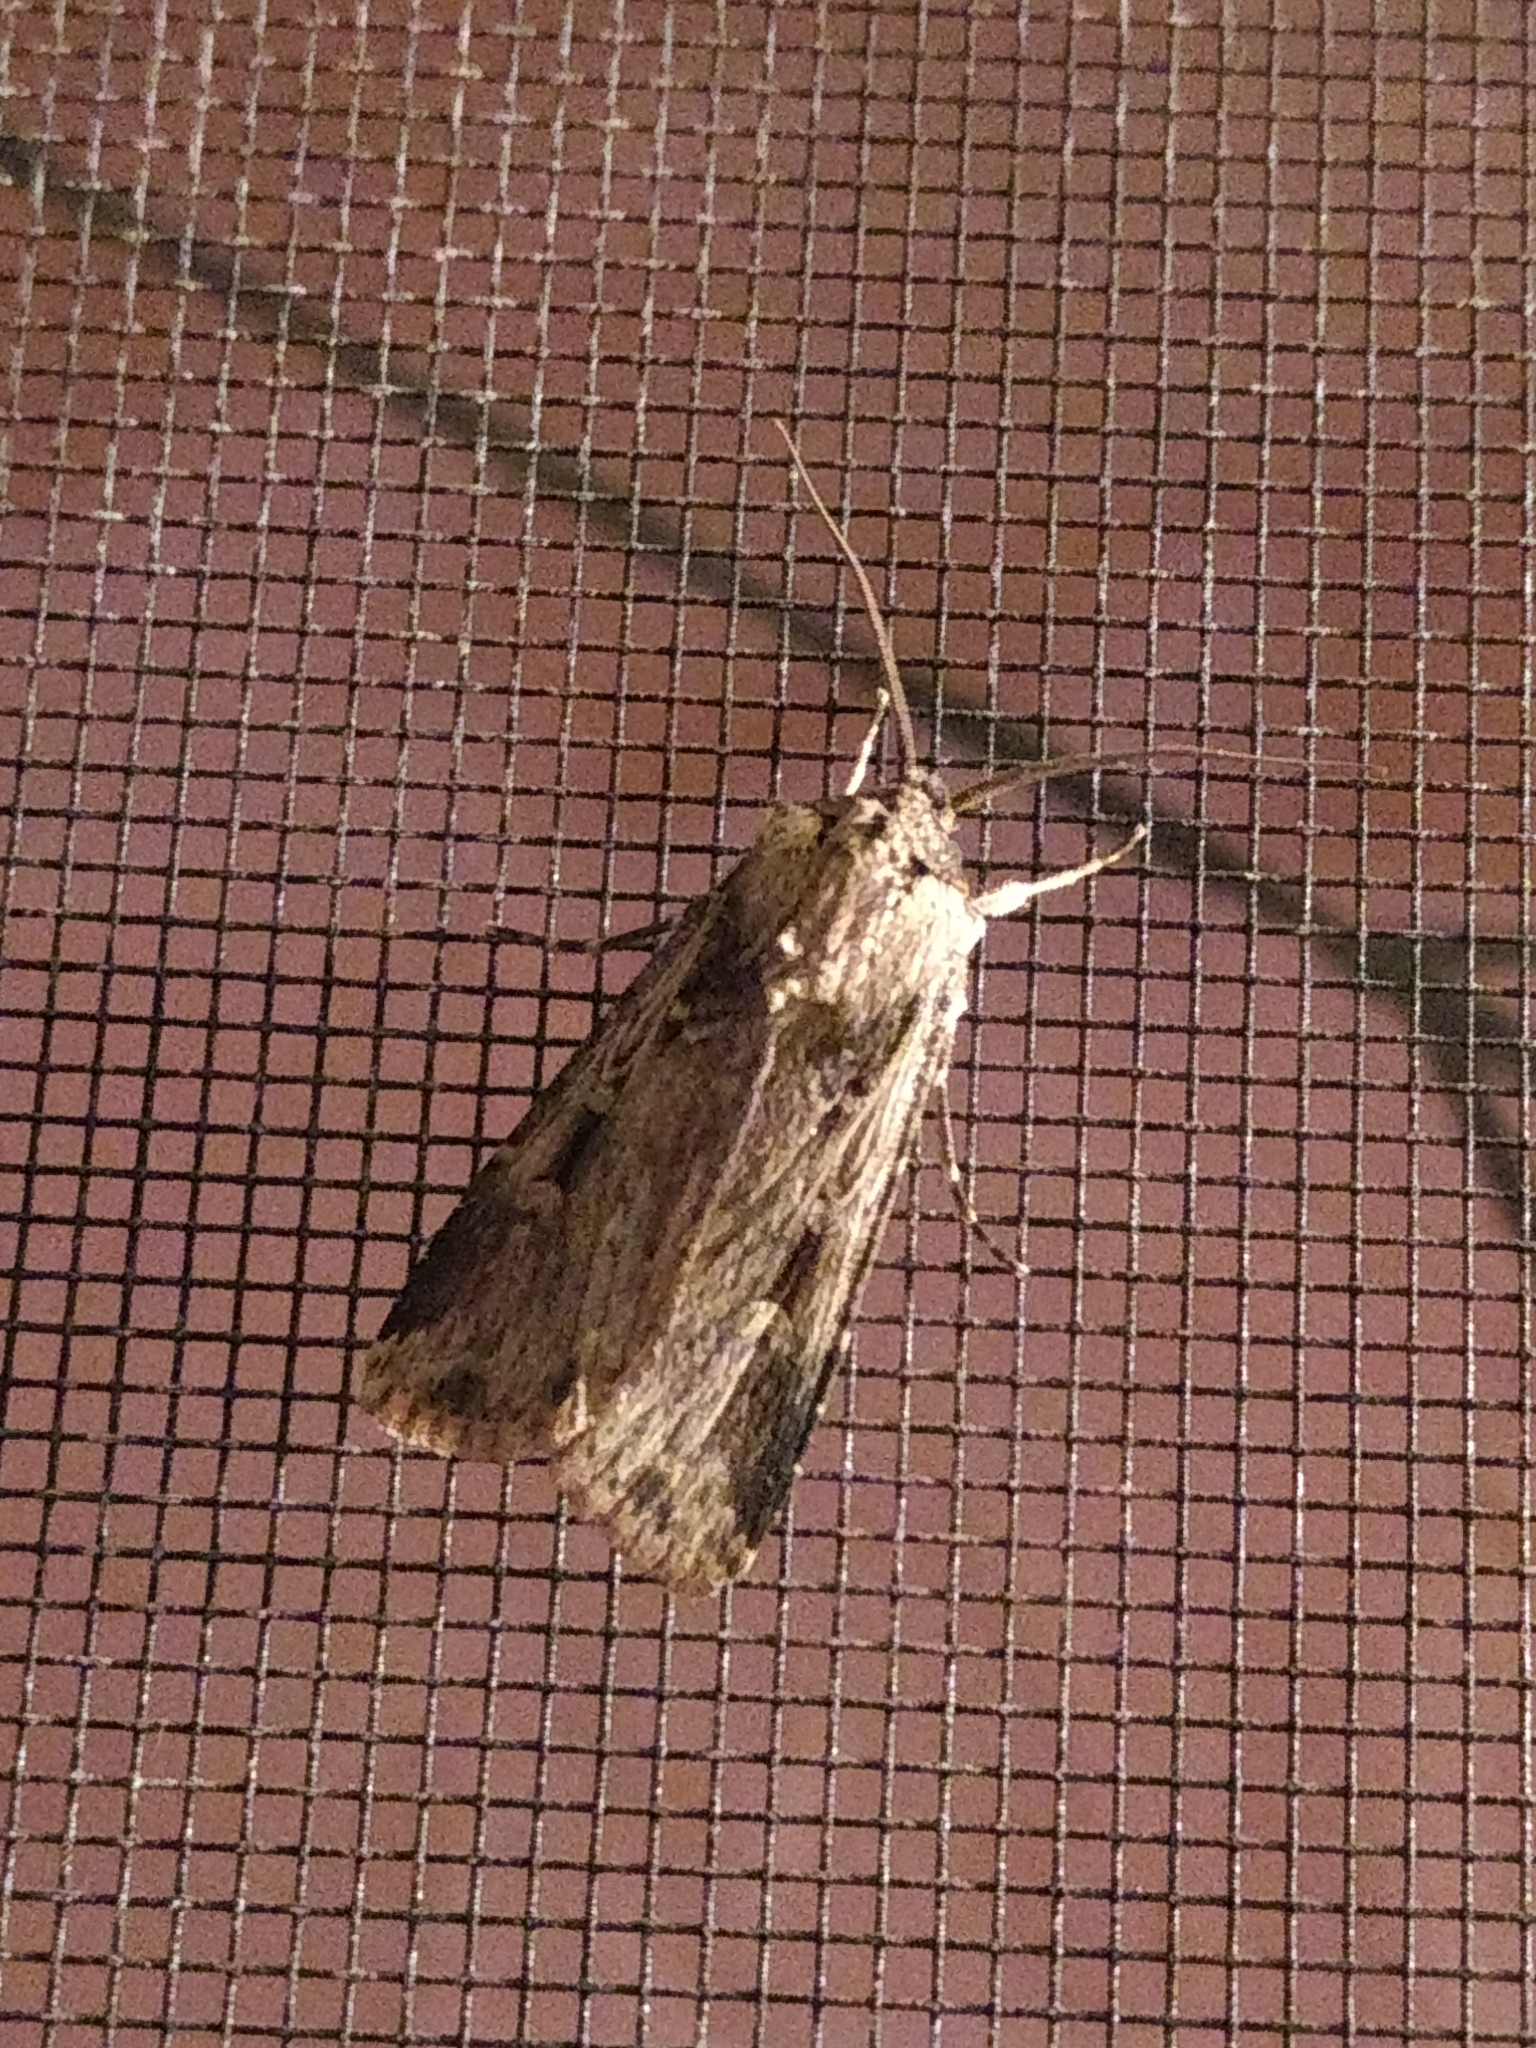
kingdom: Animalia
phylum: Arthropoda
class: Insecta
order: Lepidoptera
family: Noctuidae
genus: Feltia
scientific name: Feltia subterranea
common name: Granulate cutworm
